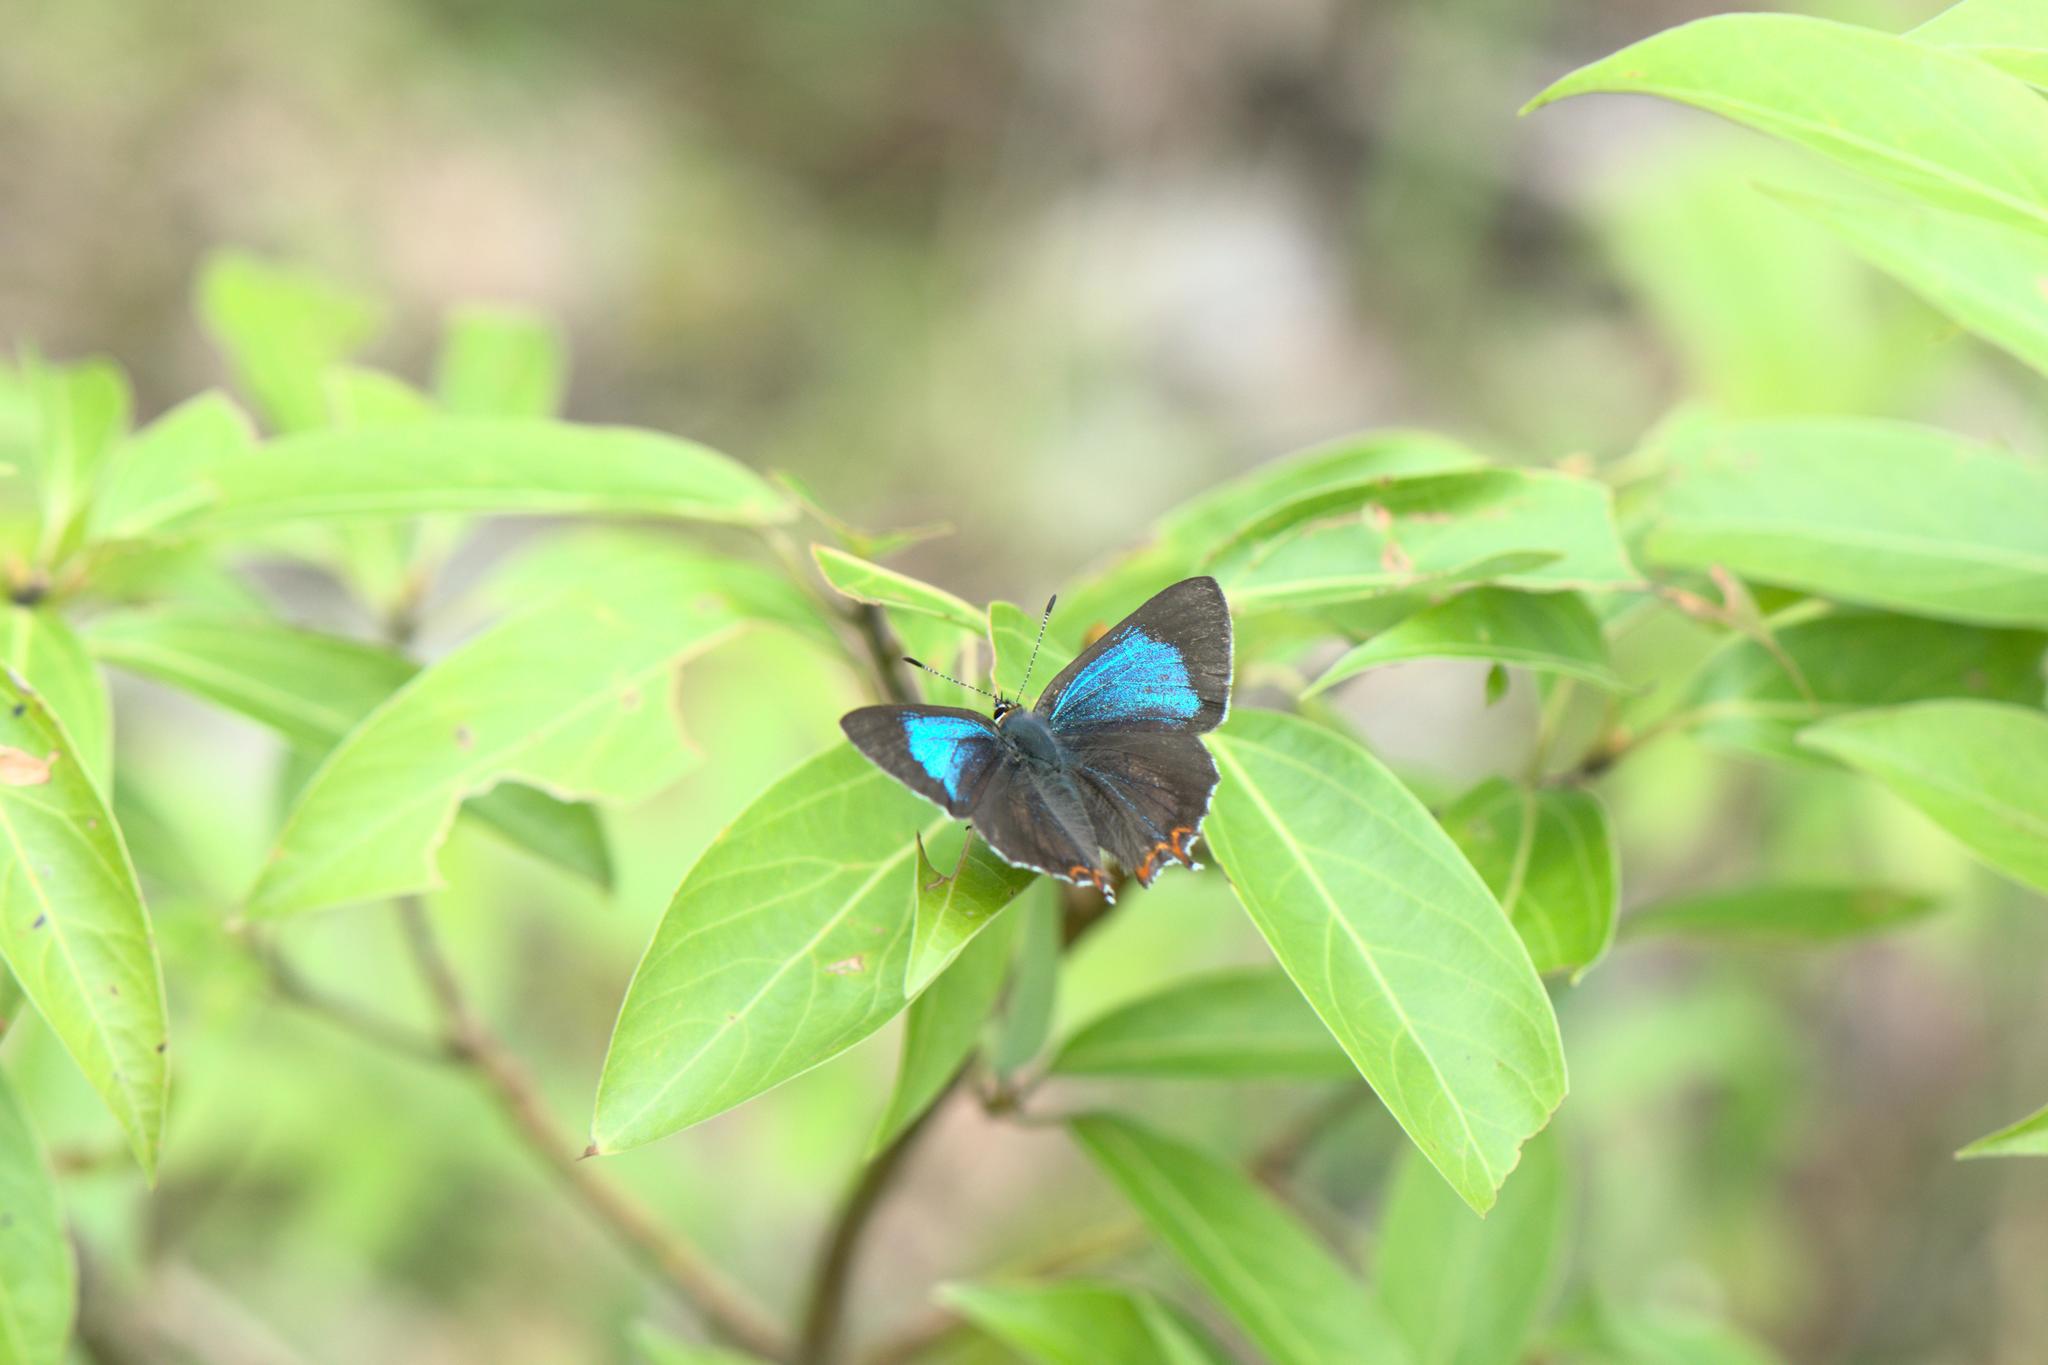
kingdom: Animalia
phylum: Arthropoda
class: Insecta
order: Lepidoptera
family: Lycaenidae
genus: Heliophorus
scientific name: Heliophorus
